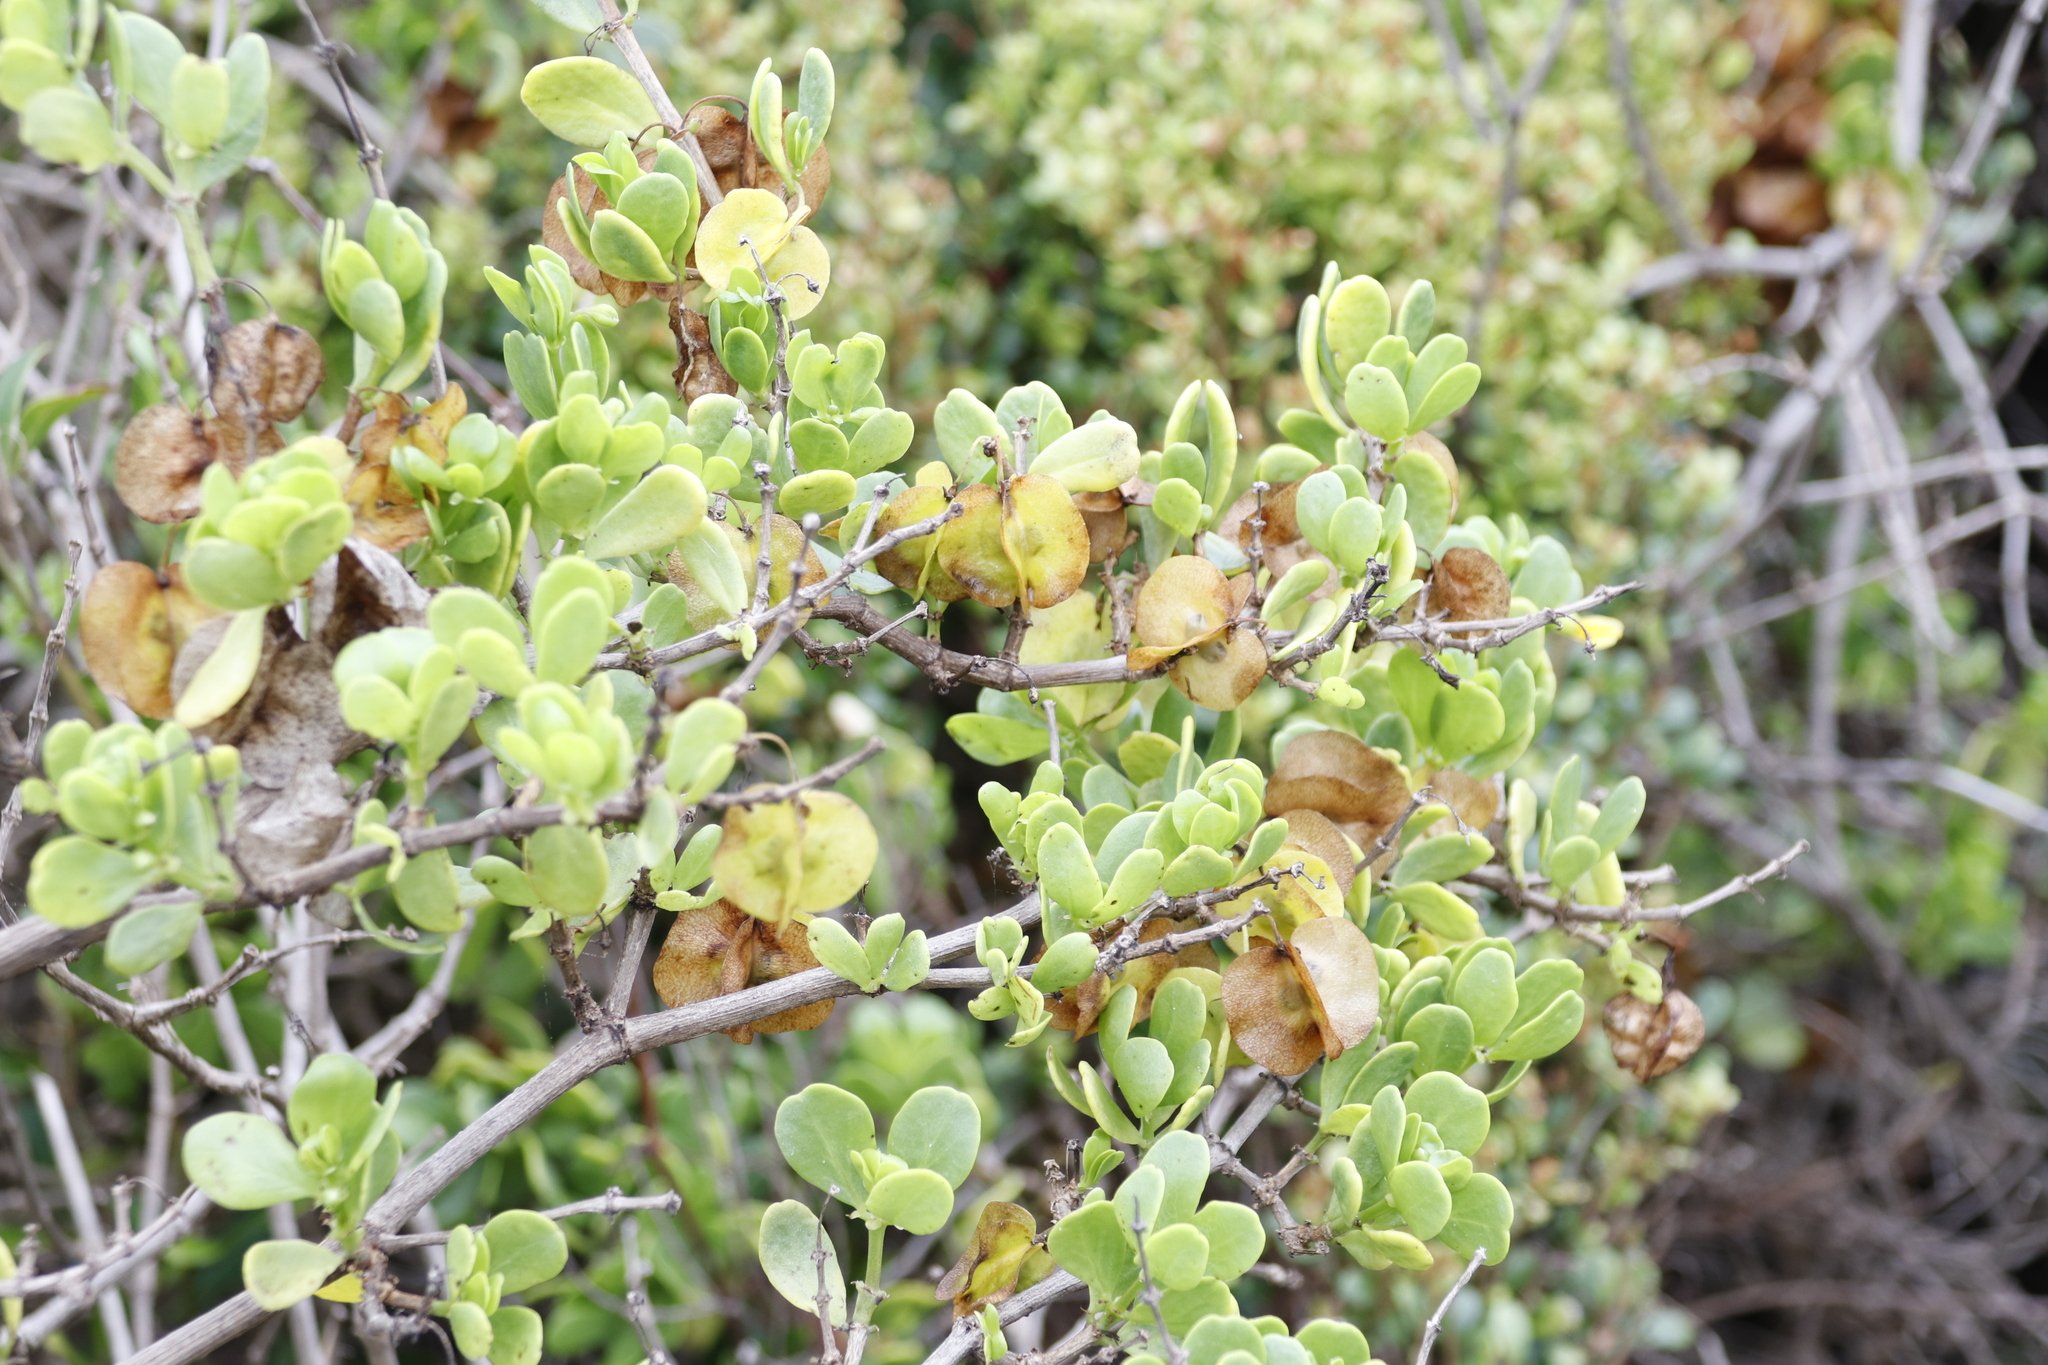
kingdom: Plantae
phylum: Tracheophyta
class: Magnoliopsida
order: Zygophyllales
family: Zygophyllaceae
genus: Roepera
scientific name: Roepera morgsana
